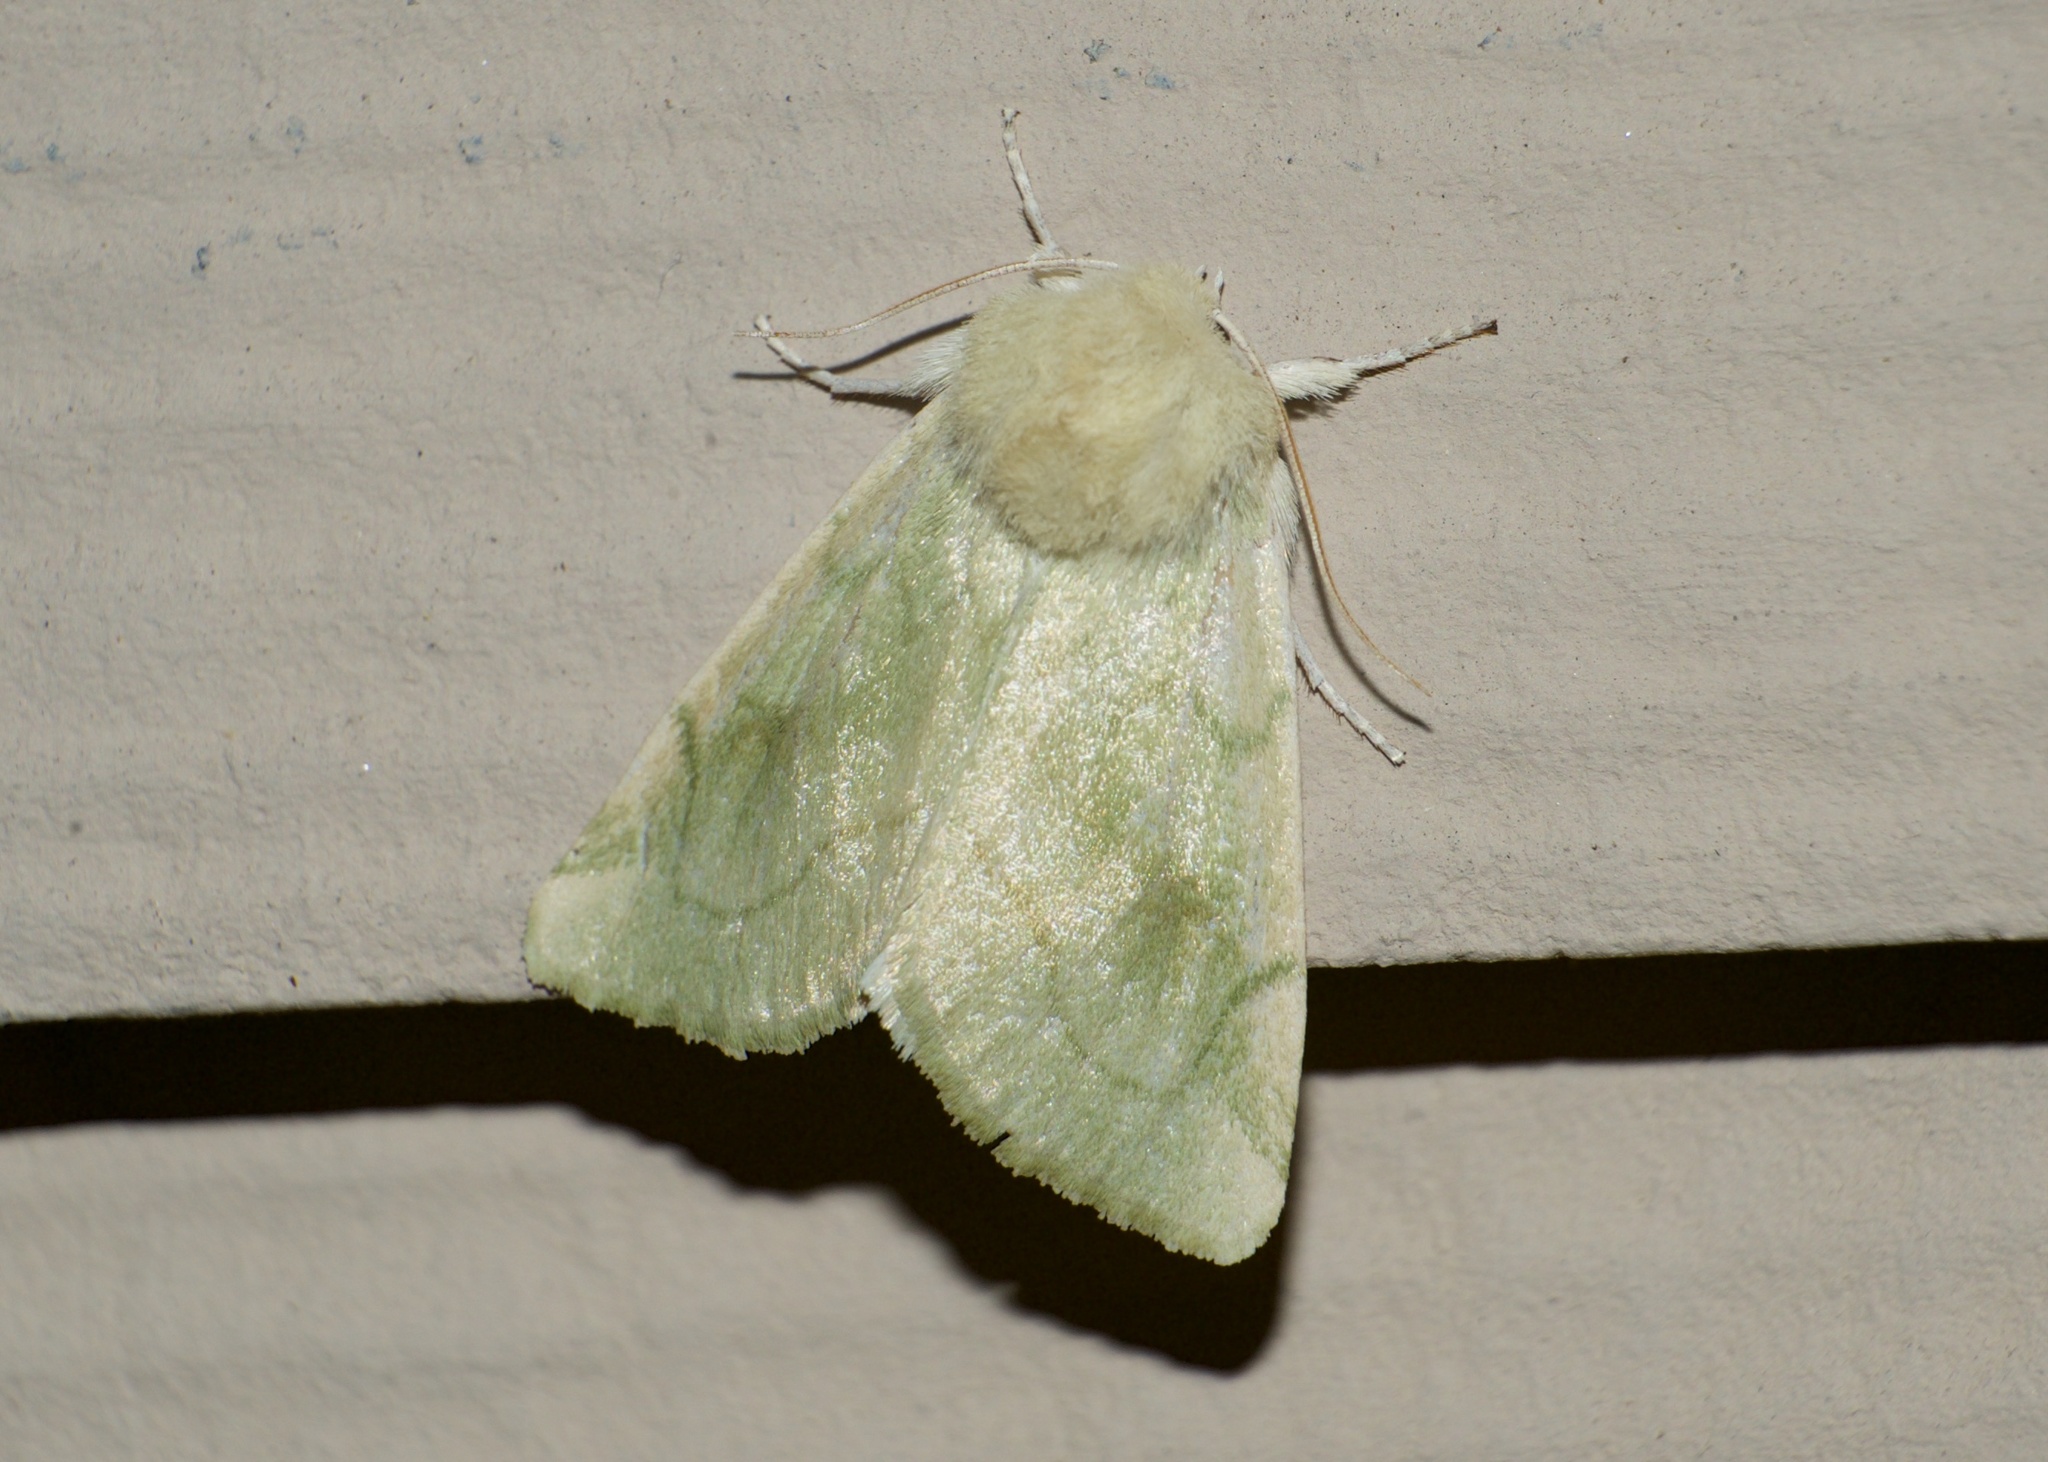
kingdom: Animalia
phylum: Arthropoda
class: Insecta
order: Lepidoptera
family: Noctuidae
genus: Zotheca
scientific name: Zotheca tranquilla
